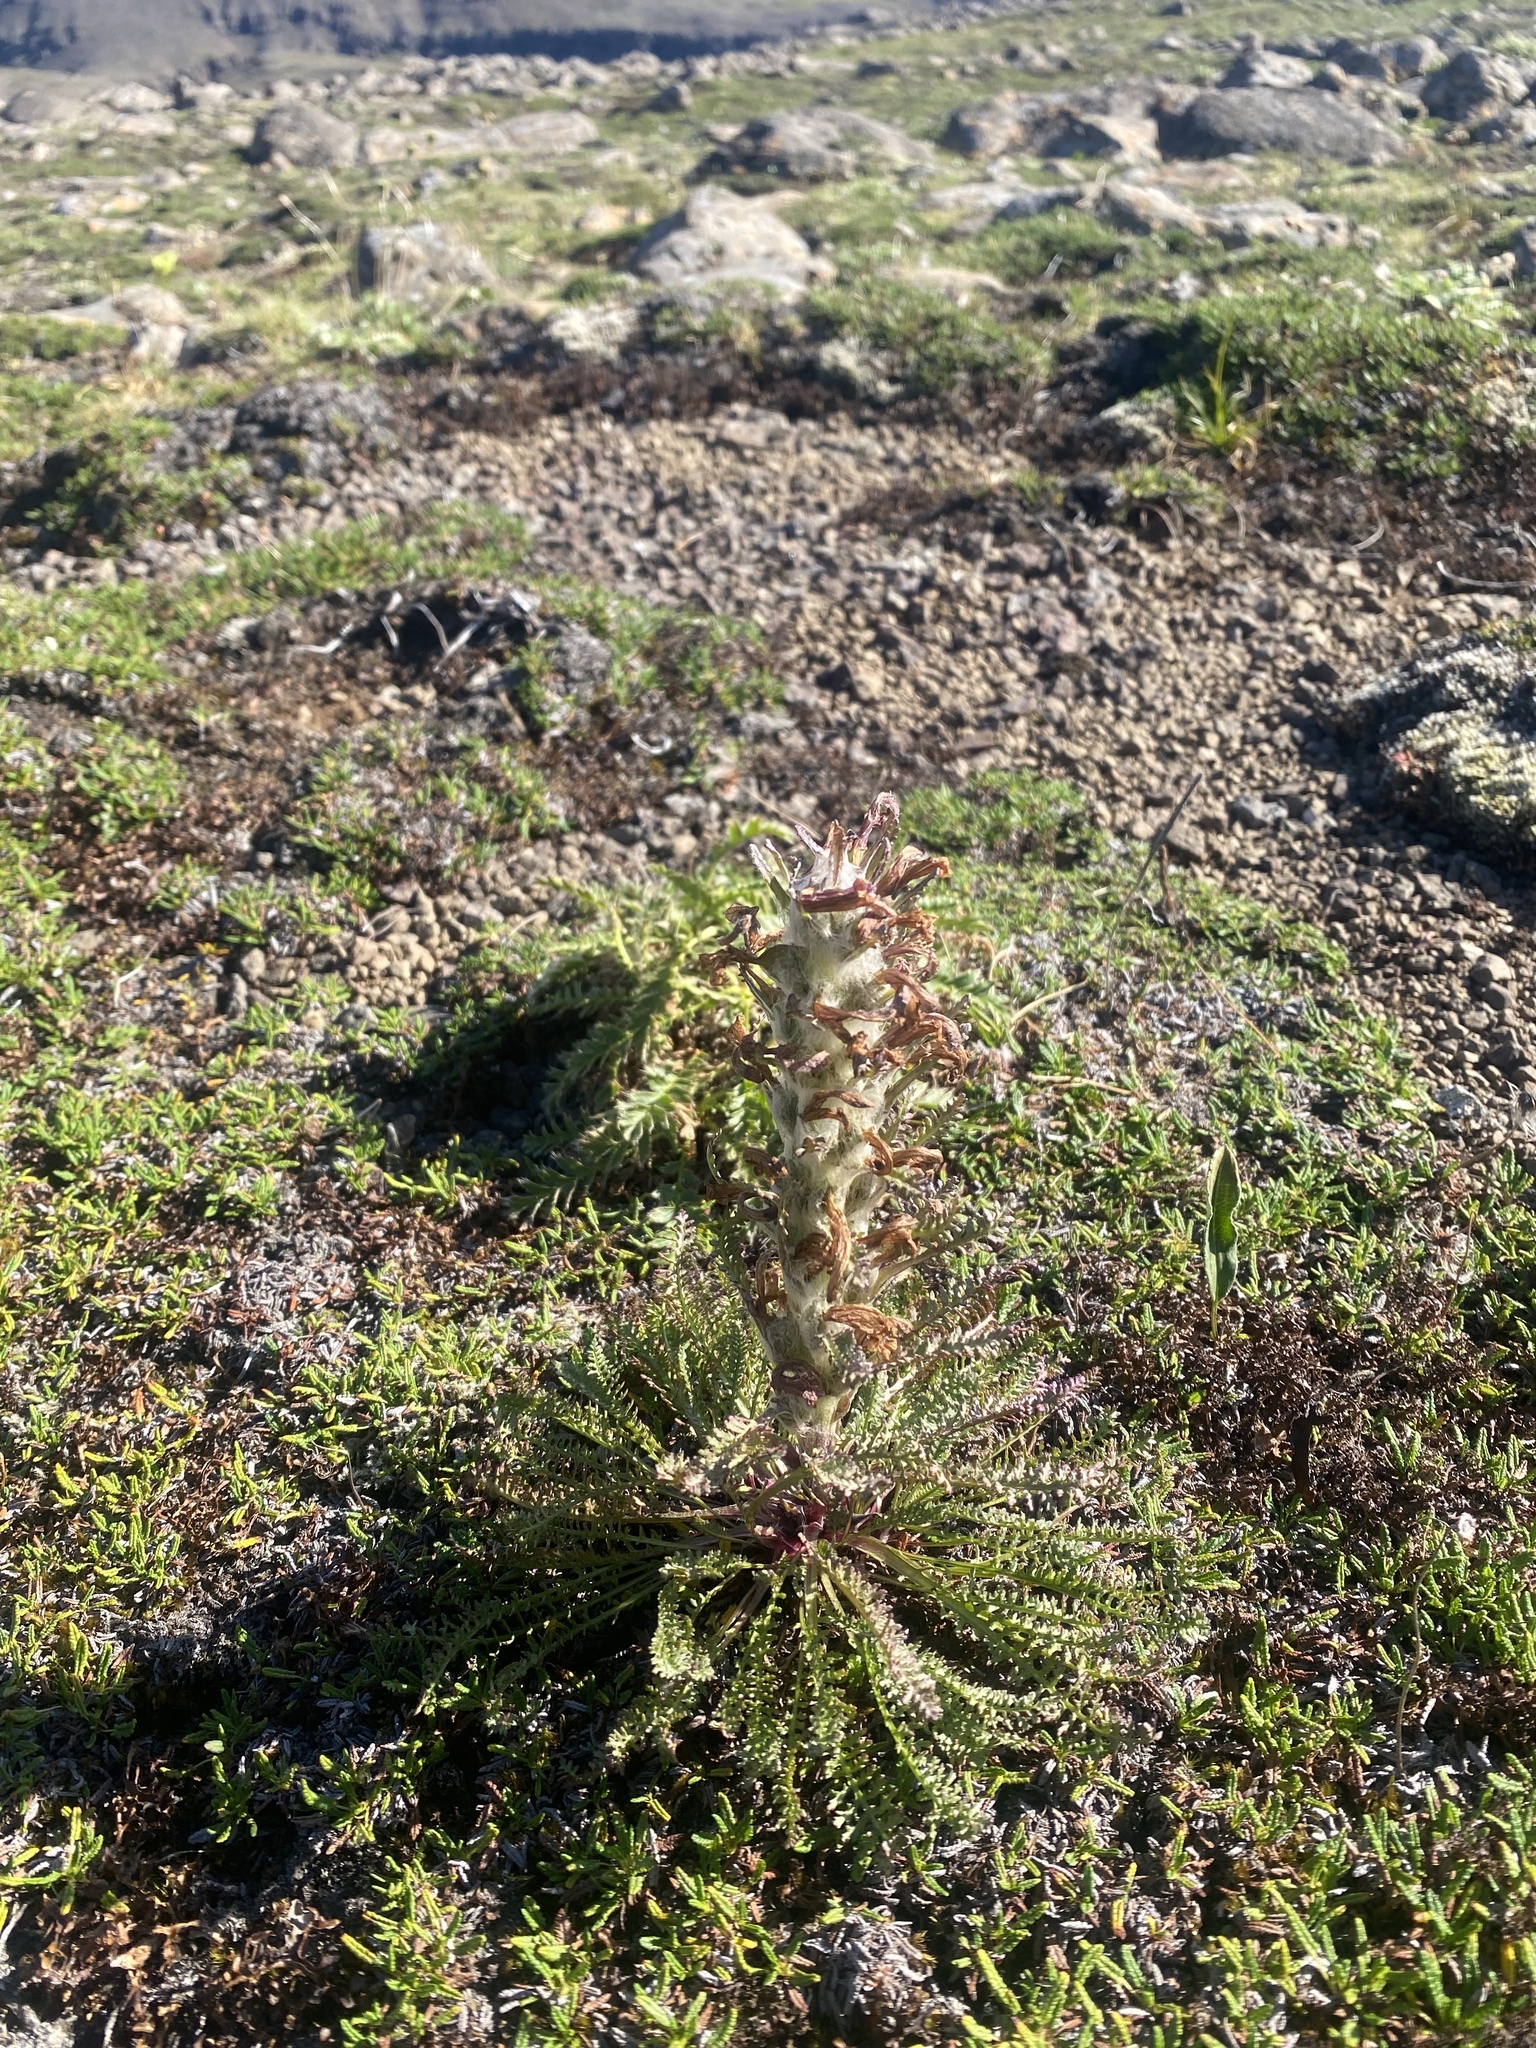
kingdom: Plantae
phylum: Tracheophyta
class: Magnoliopsida
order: Lamiales
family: Orobanchaceae
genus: Pedicularis
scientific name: Pedicularis alopecuroides
